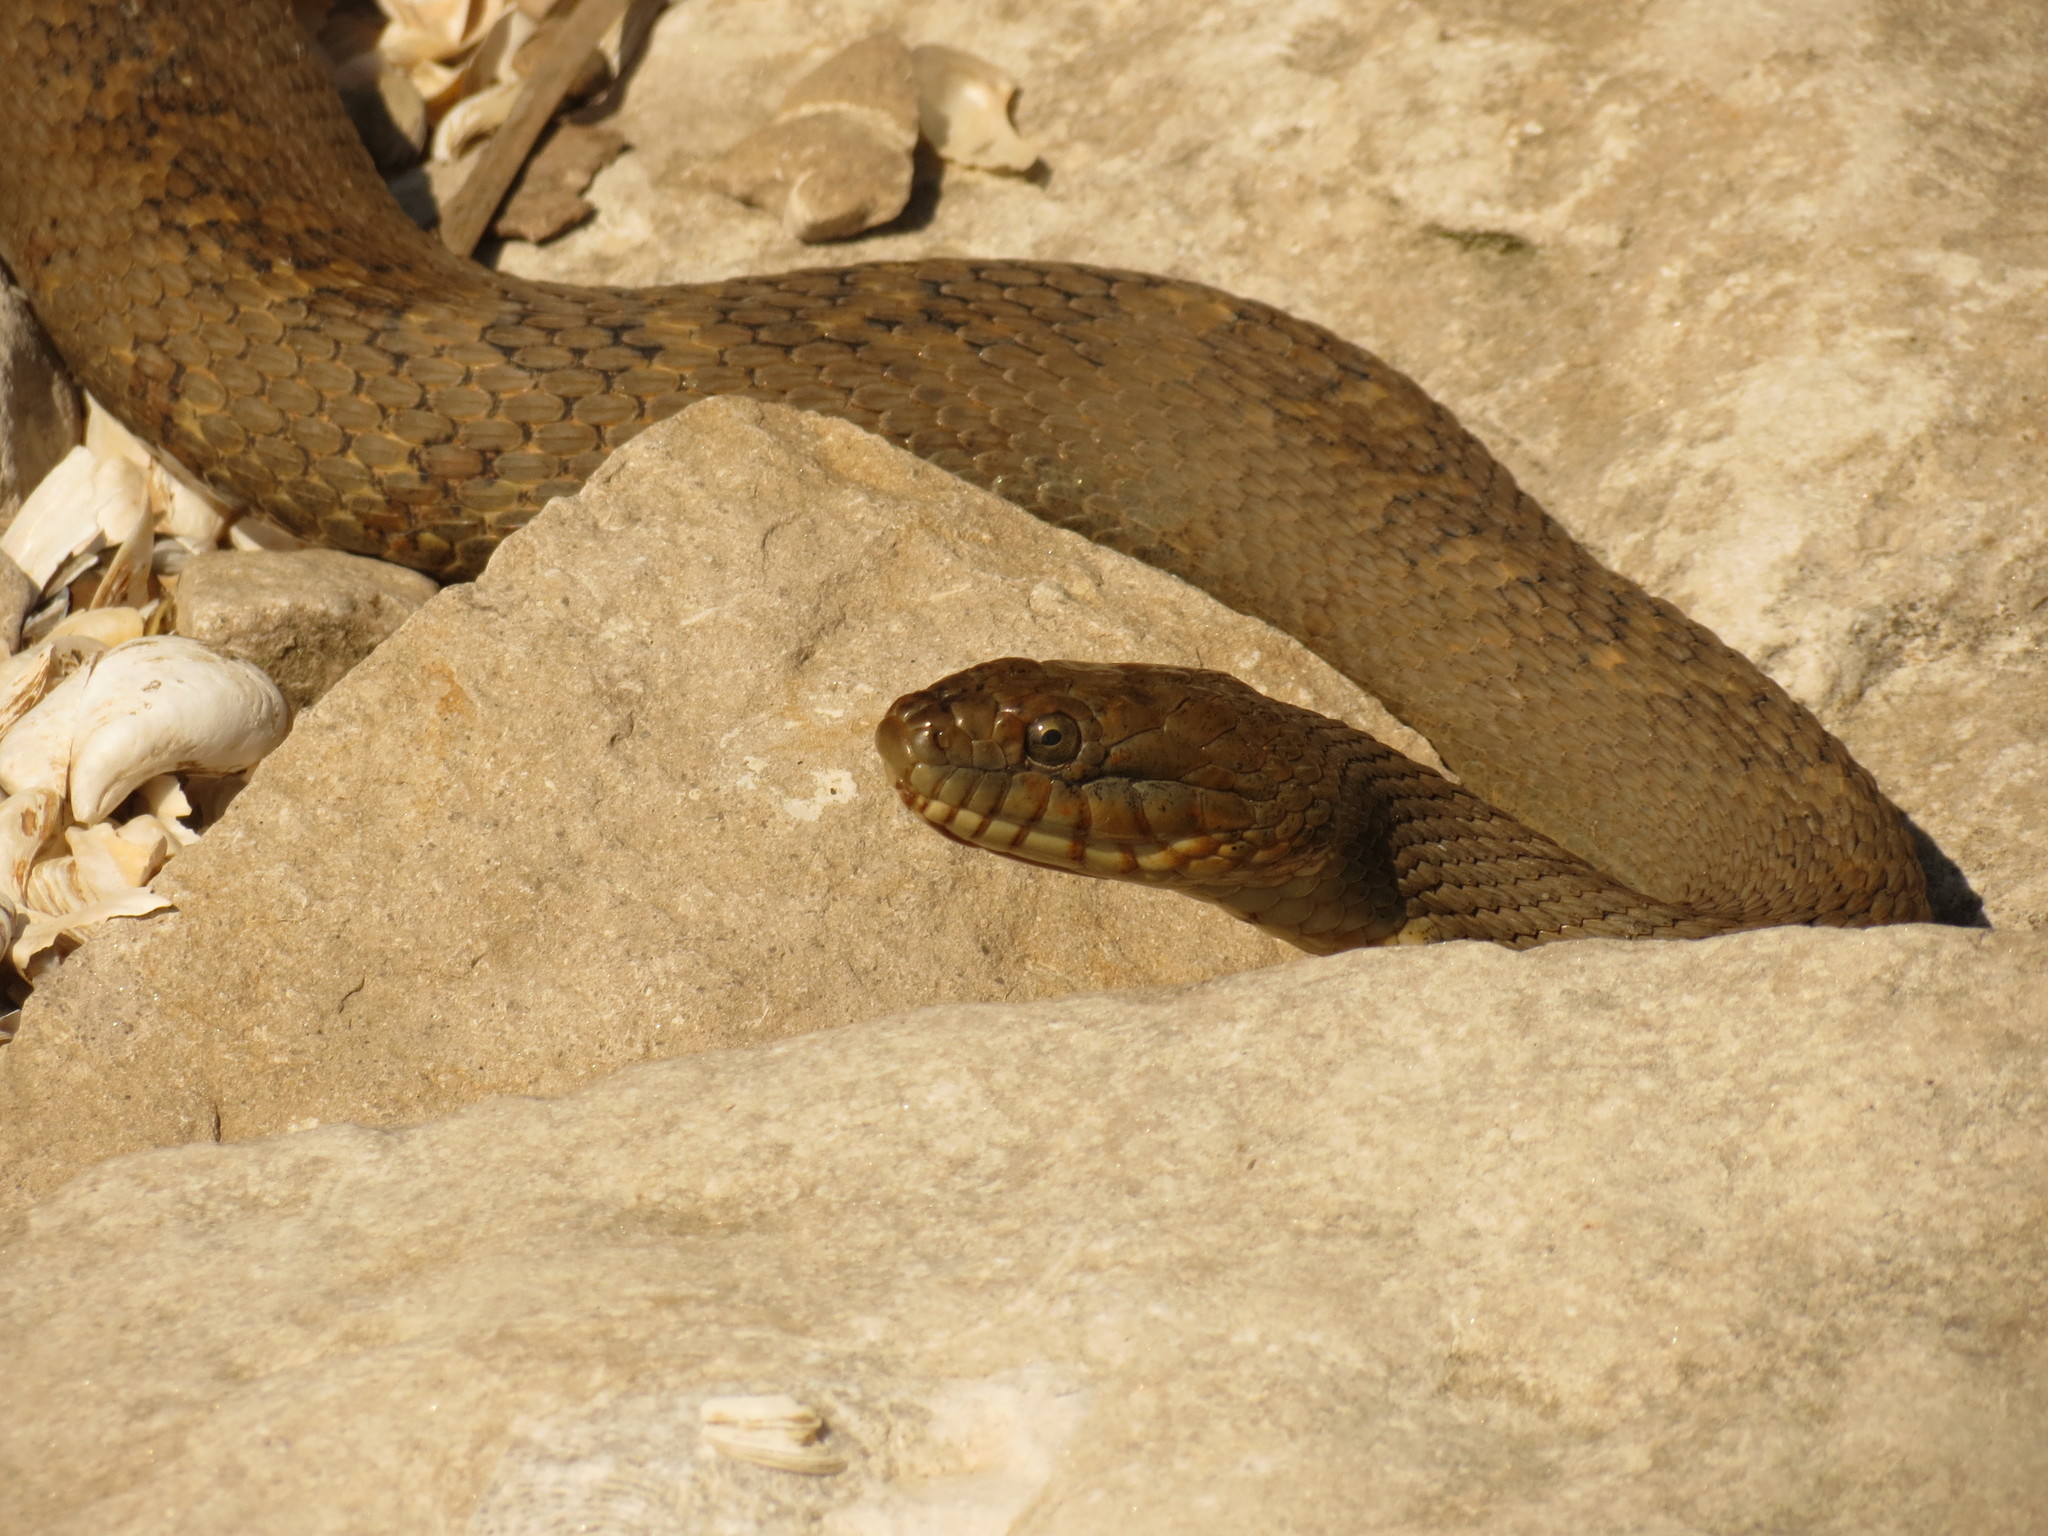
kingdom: Animalia
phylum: Chordata
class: Squamata
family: Colubridae
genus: Nerodia
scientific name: Nerodia sipedon
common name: Northern water snake
